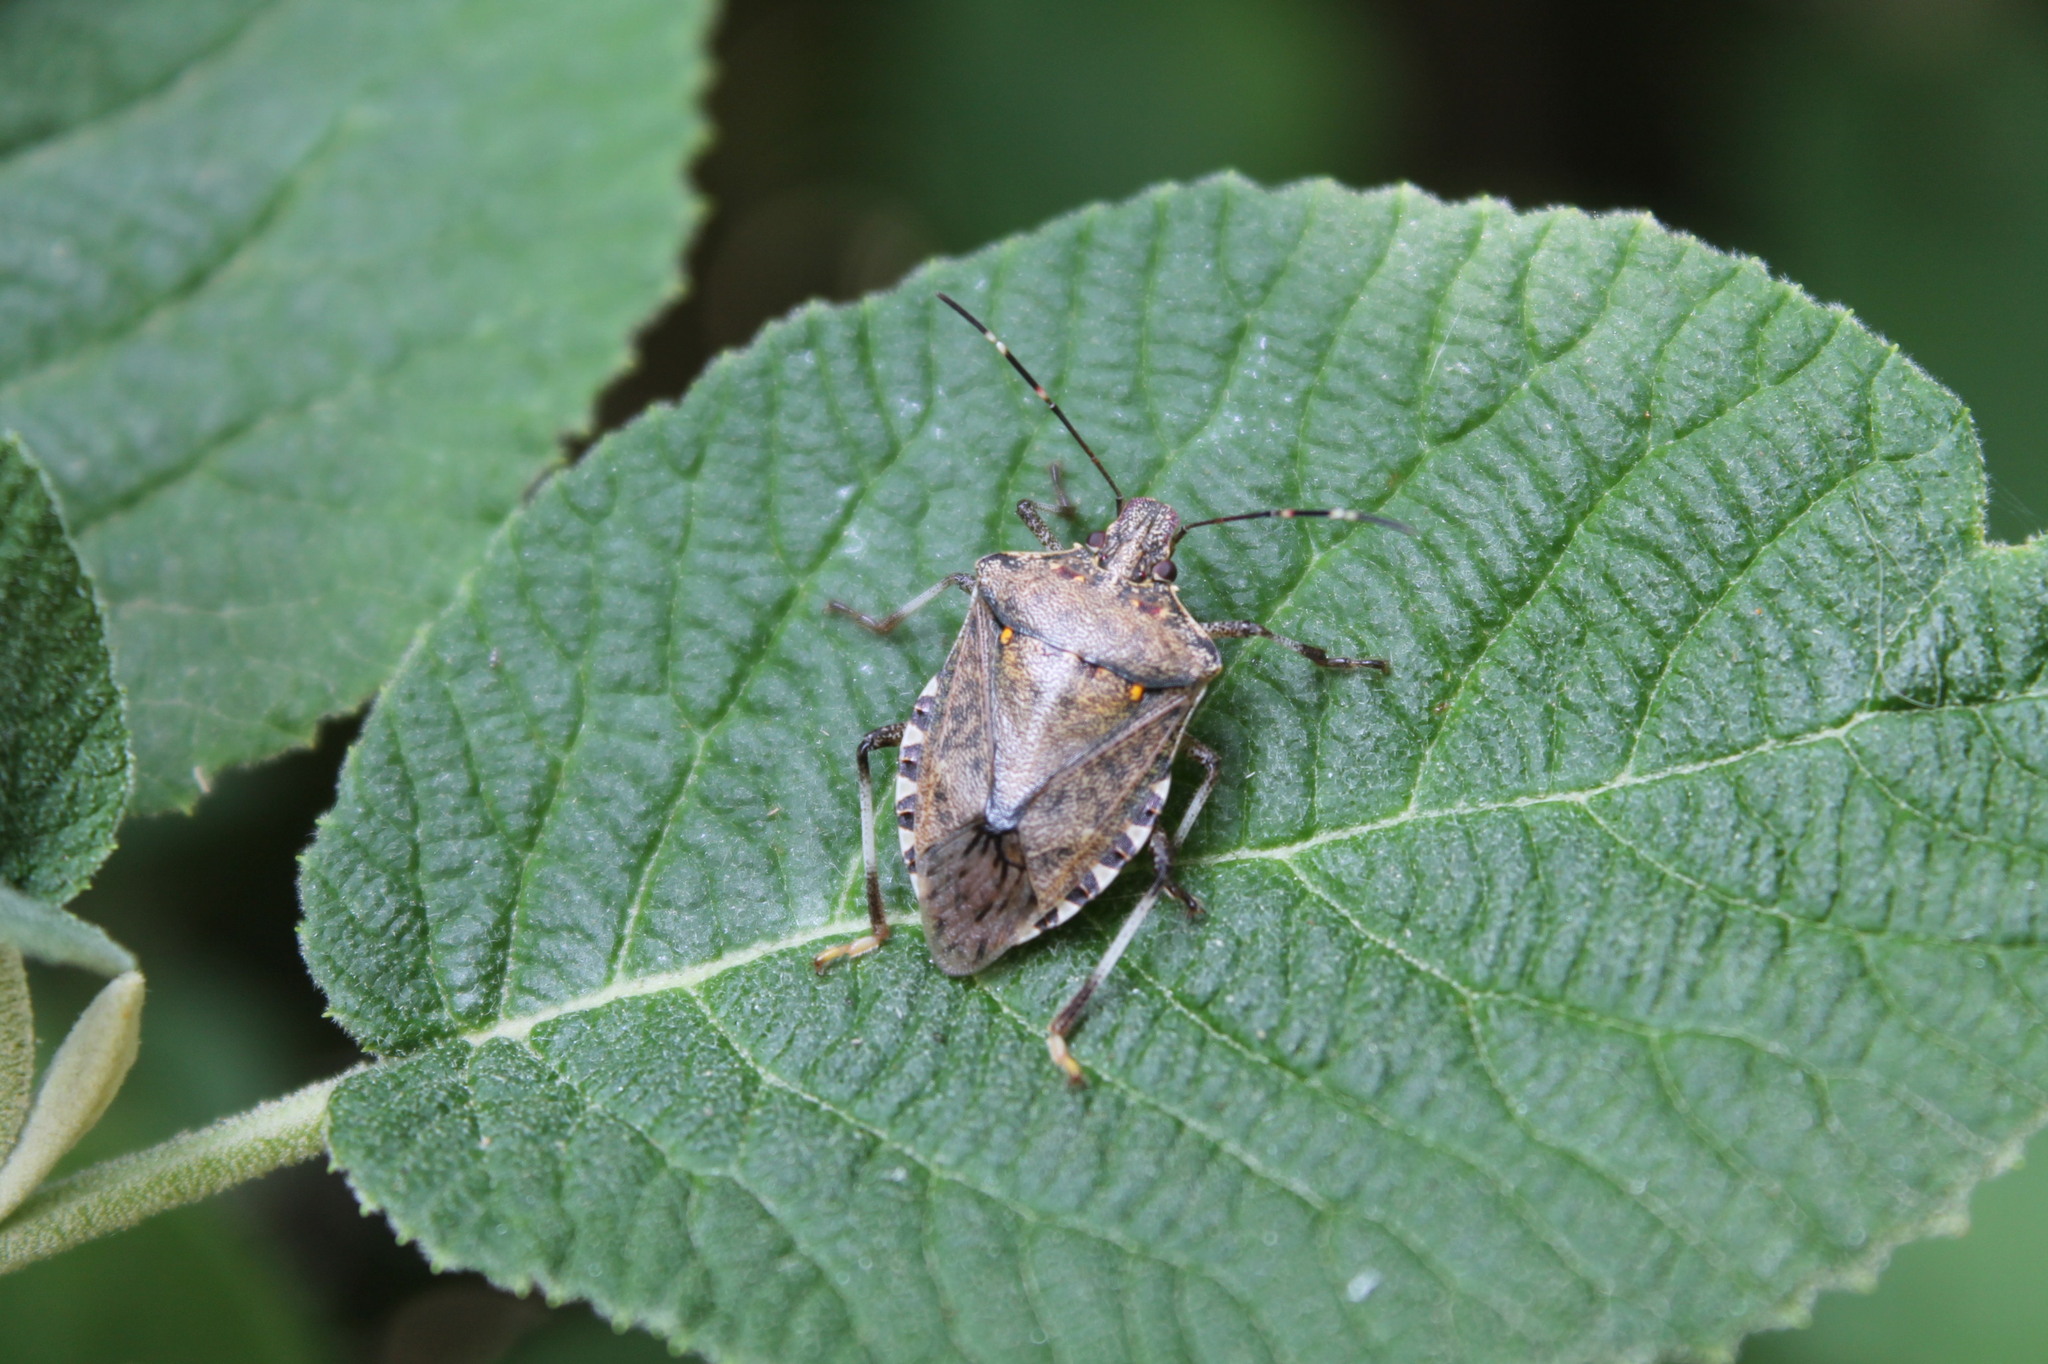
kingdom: Animalia
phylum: Arthropoda
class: Insecta
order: Hemiptera
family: Pentatomidae
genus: Halyomorpha
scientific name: Halyomorpha halys
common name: Brown marmorated stink bug
